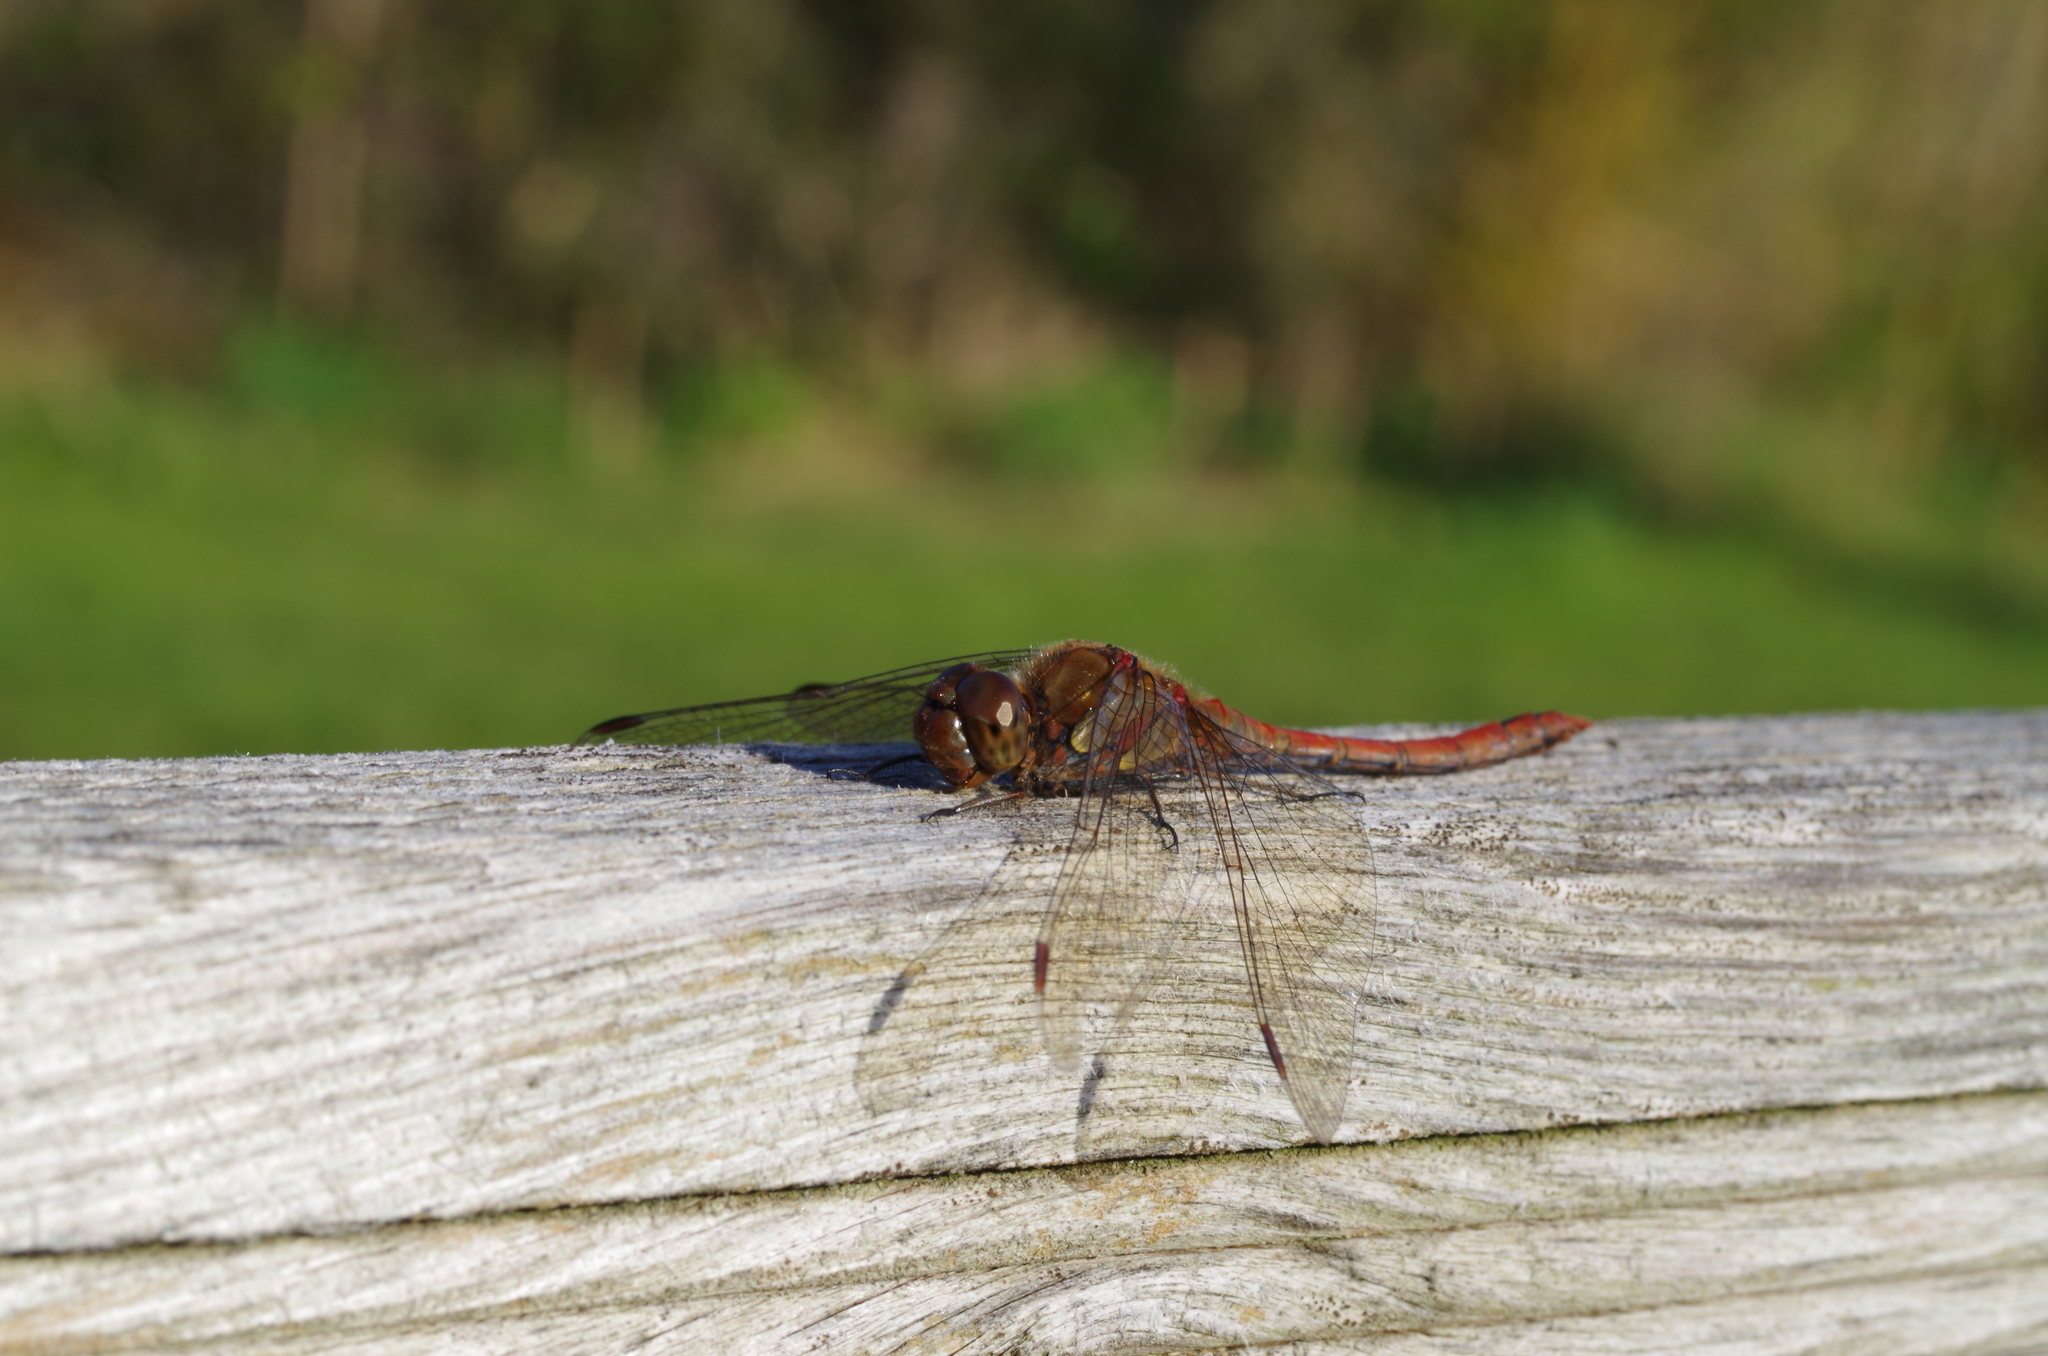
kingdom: Animalia
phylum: Arthropoda
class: Insecta
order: Odonata
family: Libellulidae
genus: Sympetrum
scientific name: Sympetrum striolatum
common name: Common darter
